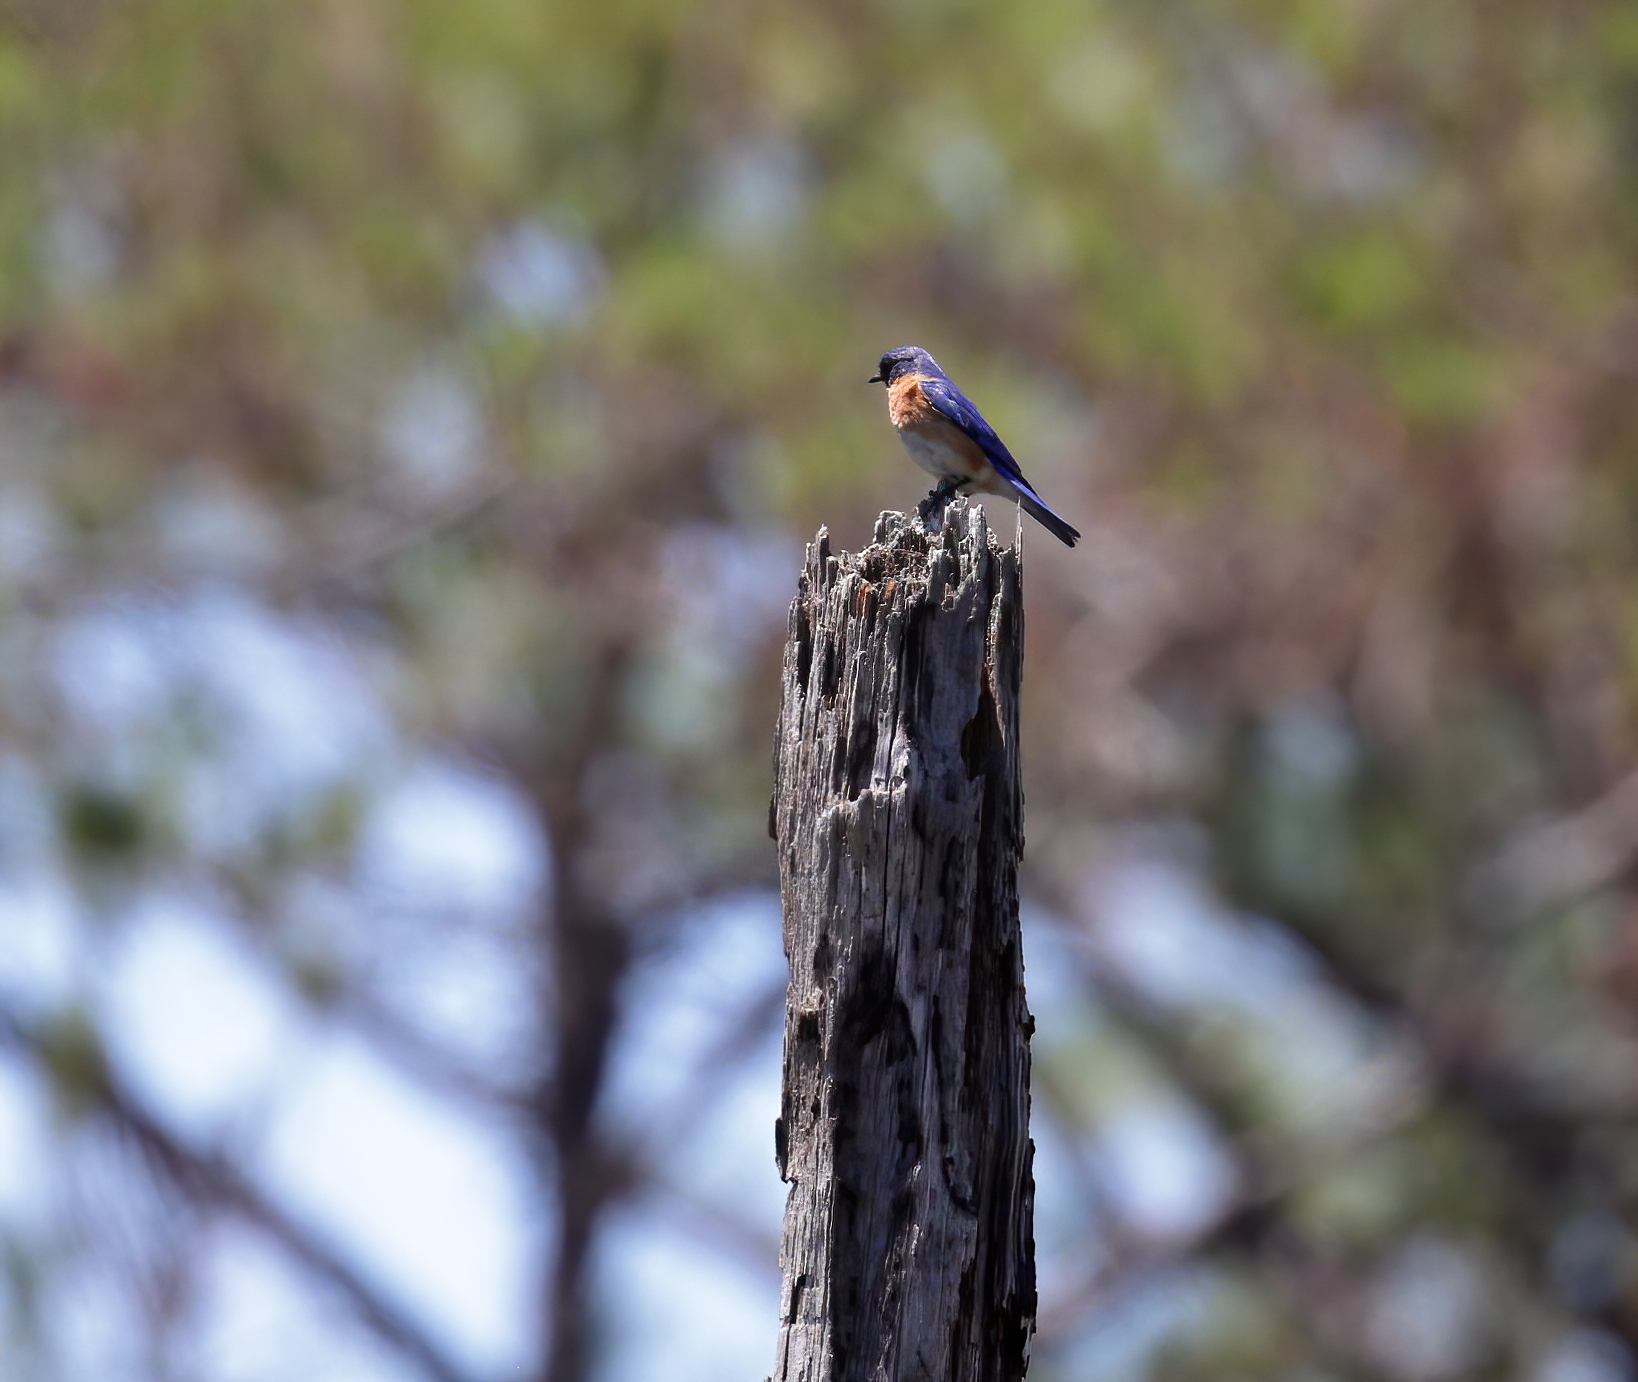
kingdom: Animalia
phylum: Chordata
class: Aves
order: Passeriformes
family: Turdidae
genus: Sialia
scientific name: Sialia sialis
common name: Eastern bluebird
